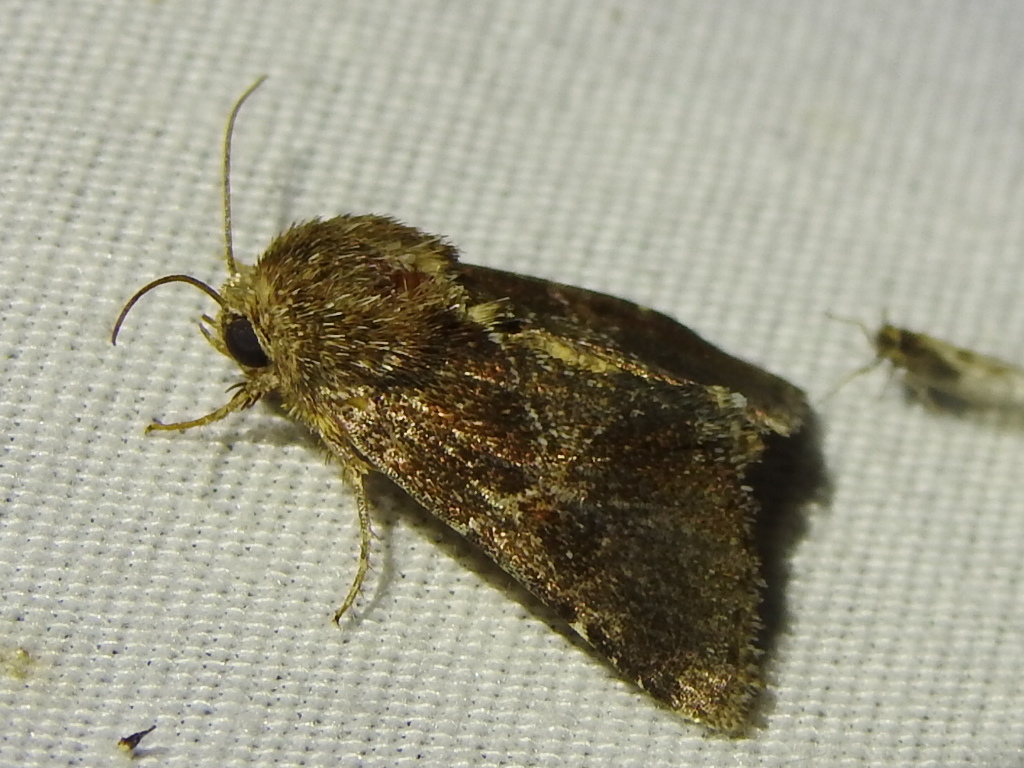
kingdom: Animalia
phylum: Arthropoda
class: Insecta
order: Lepidoptera
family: Noctuidae
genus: Schinia
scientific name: Schinia saturata
